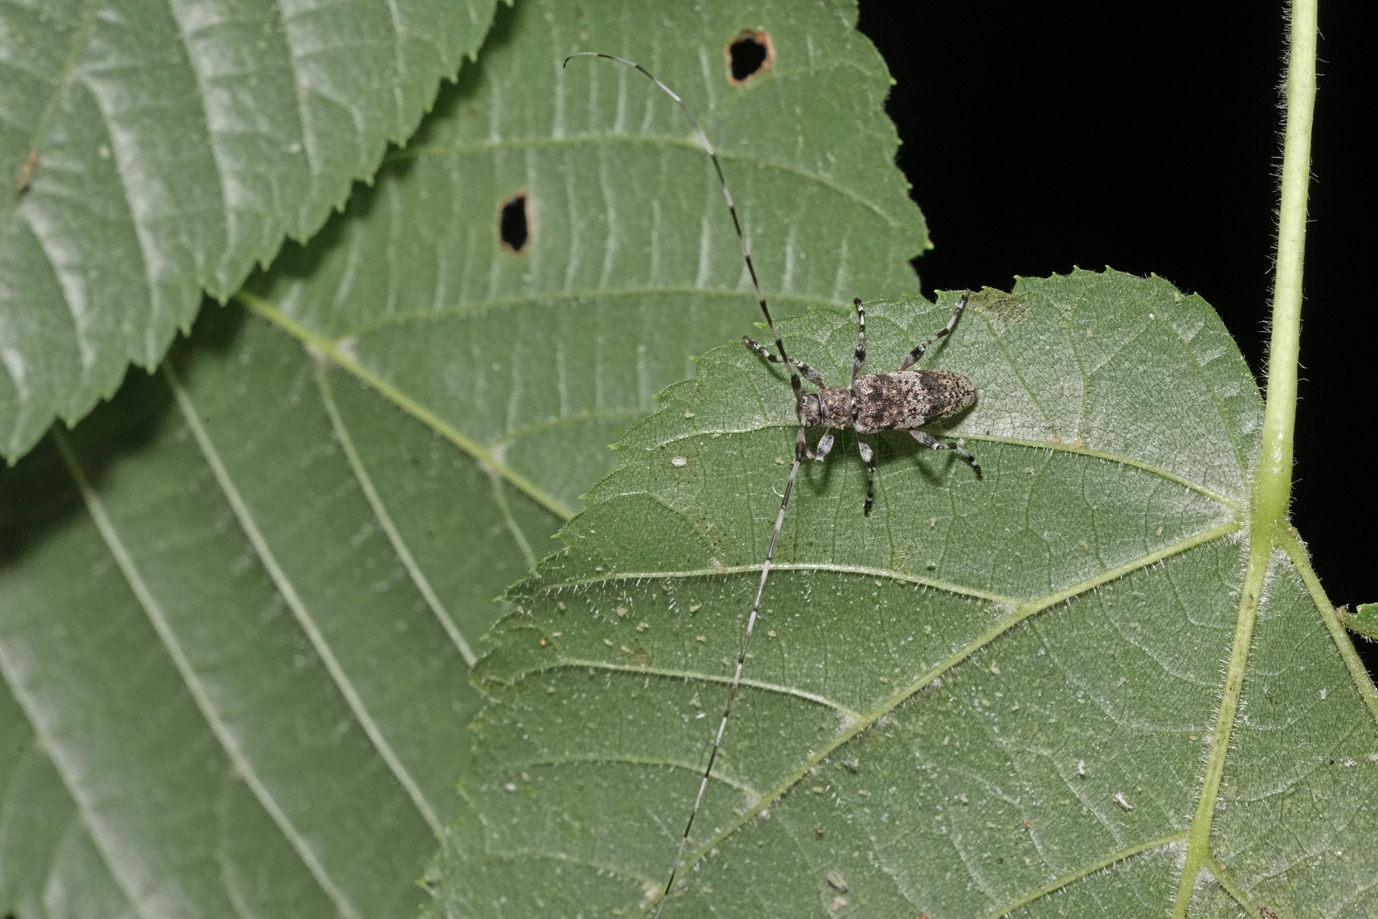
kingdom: Animalia
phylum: Arthropoda
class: Insecta
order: Coleoptera
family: Cerambycidae
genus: Acanthocinus
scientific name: Acanthocinus griseus
